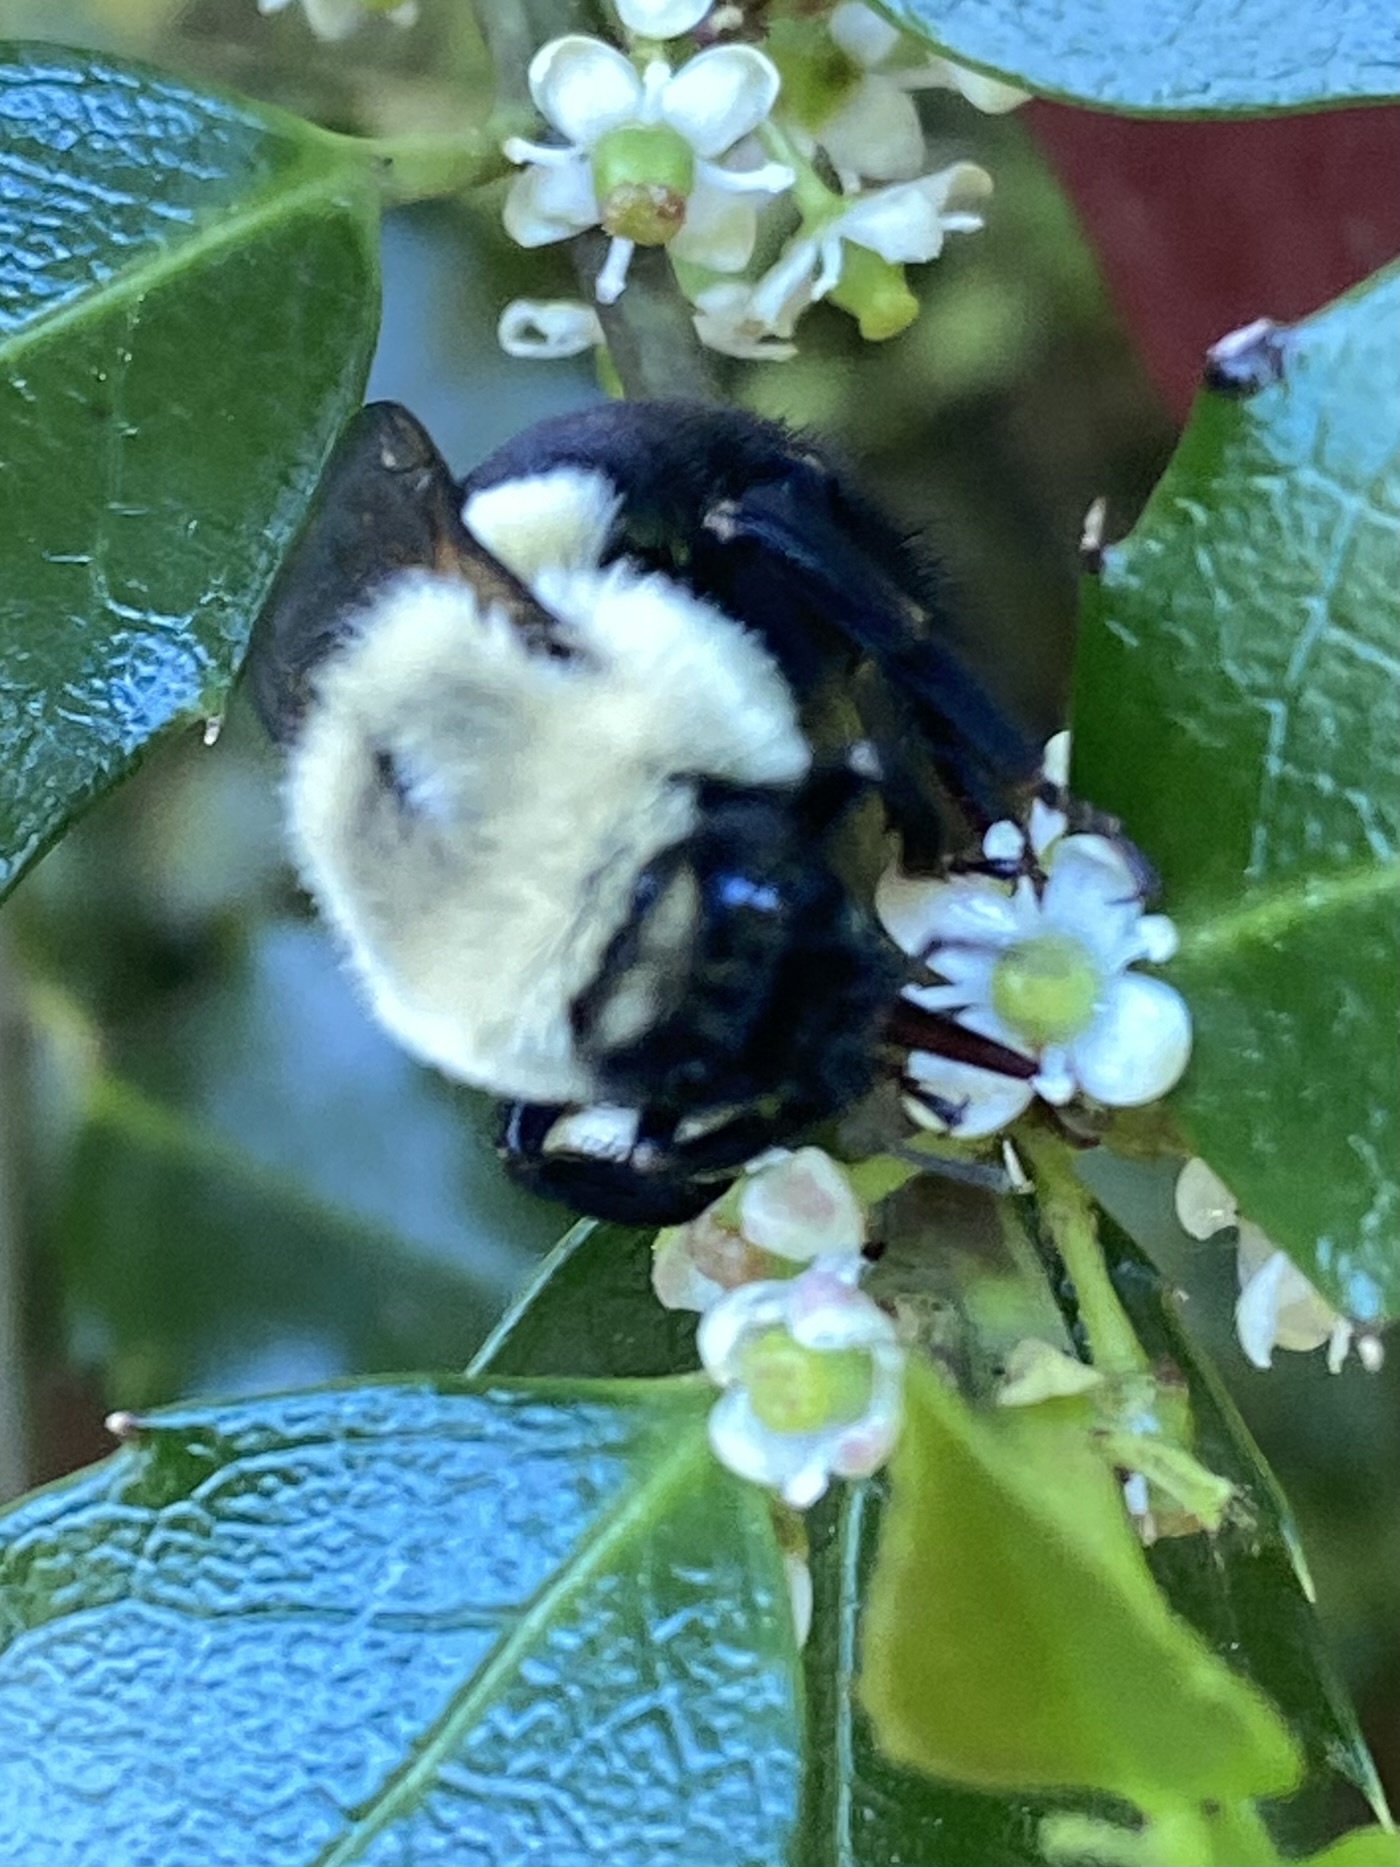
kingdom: Animalia
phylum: Arthropoda
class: Insecta
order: Hymenoptera
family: Apidae
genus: Bombus
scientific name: Bombus impatiens
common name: Common eastern bumble bee
